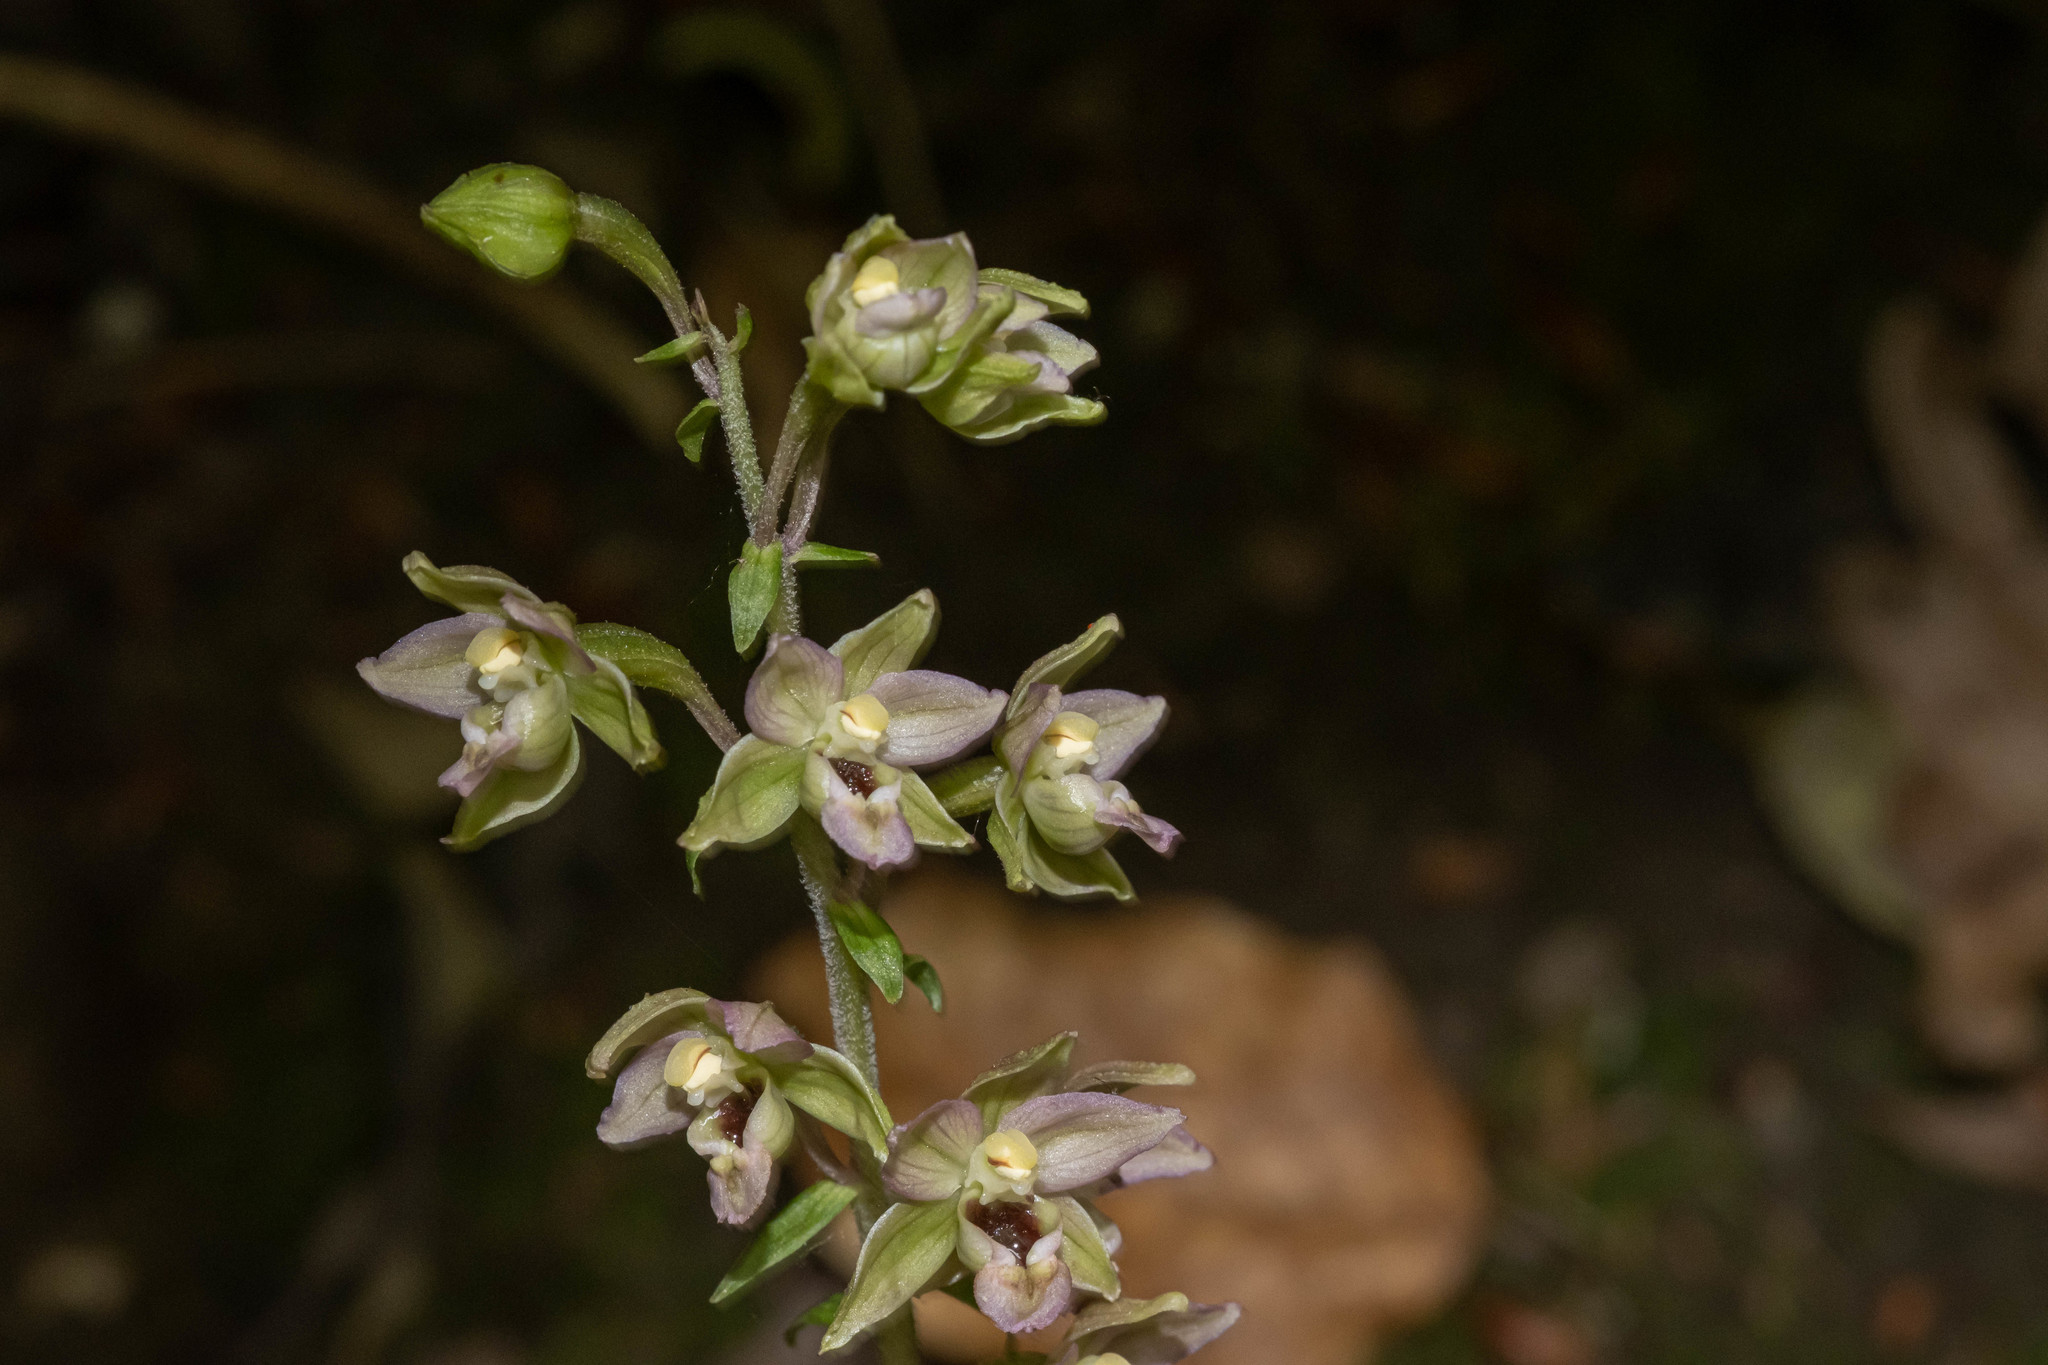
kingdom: Plantae
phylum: Tracheophyta
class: Liliopsida
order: Asparagales
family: Orchidaceae
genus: Epipactis
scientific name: Epipactis helleborine
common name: Broad-leaved helleborine
